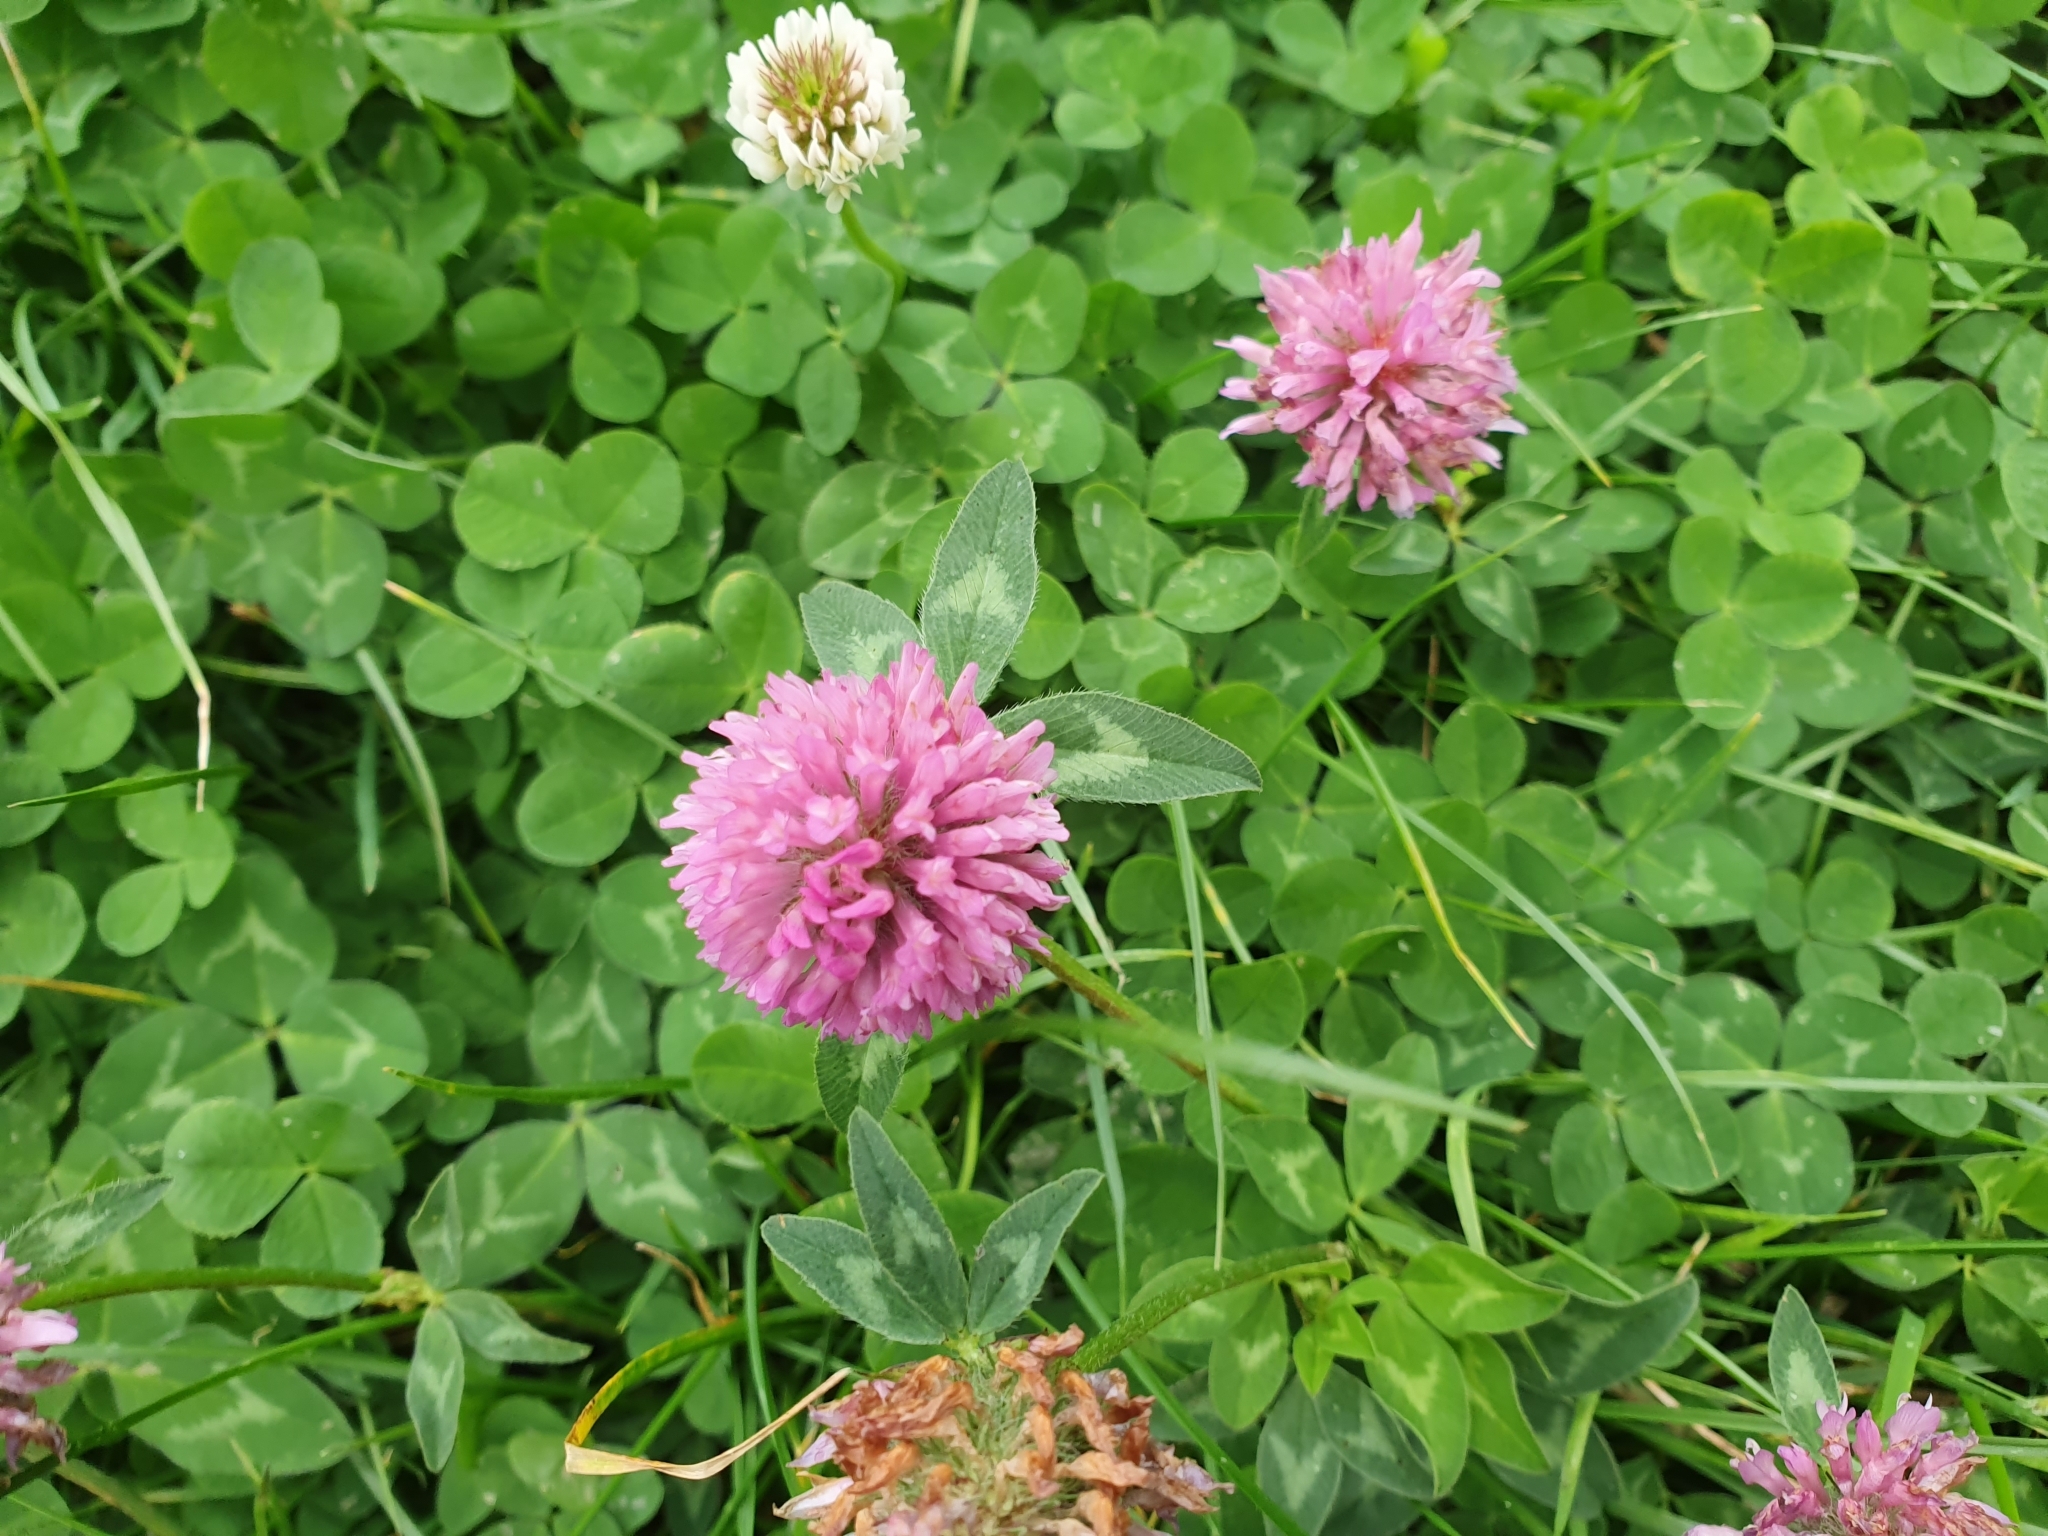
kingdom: Plantae
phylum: Tracheophyta
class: Magnoliopsida
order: Fabales
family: Fabaceae
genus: Trifolium
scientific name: Trifolium pratense
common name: Red clover
